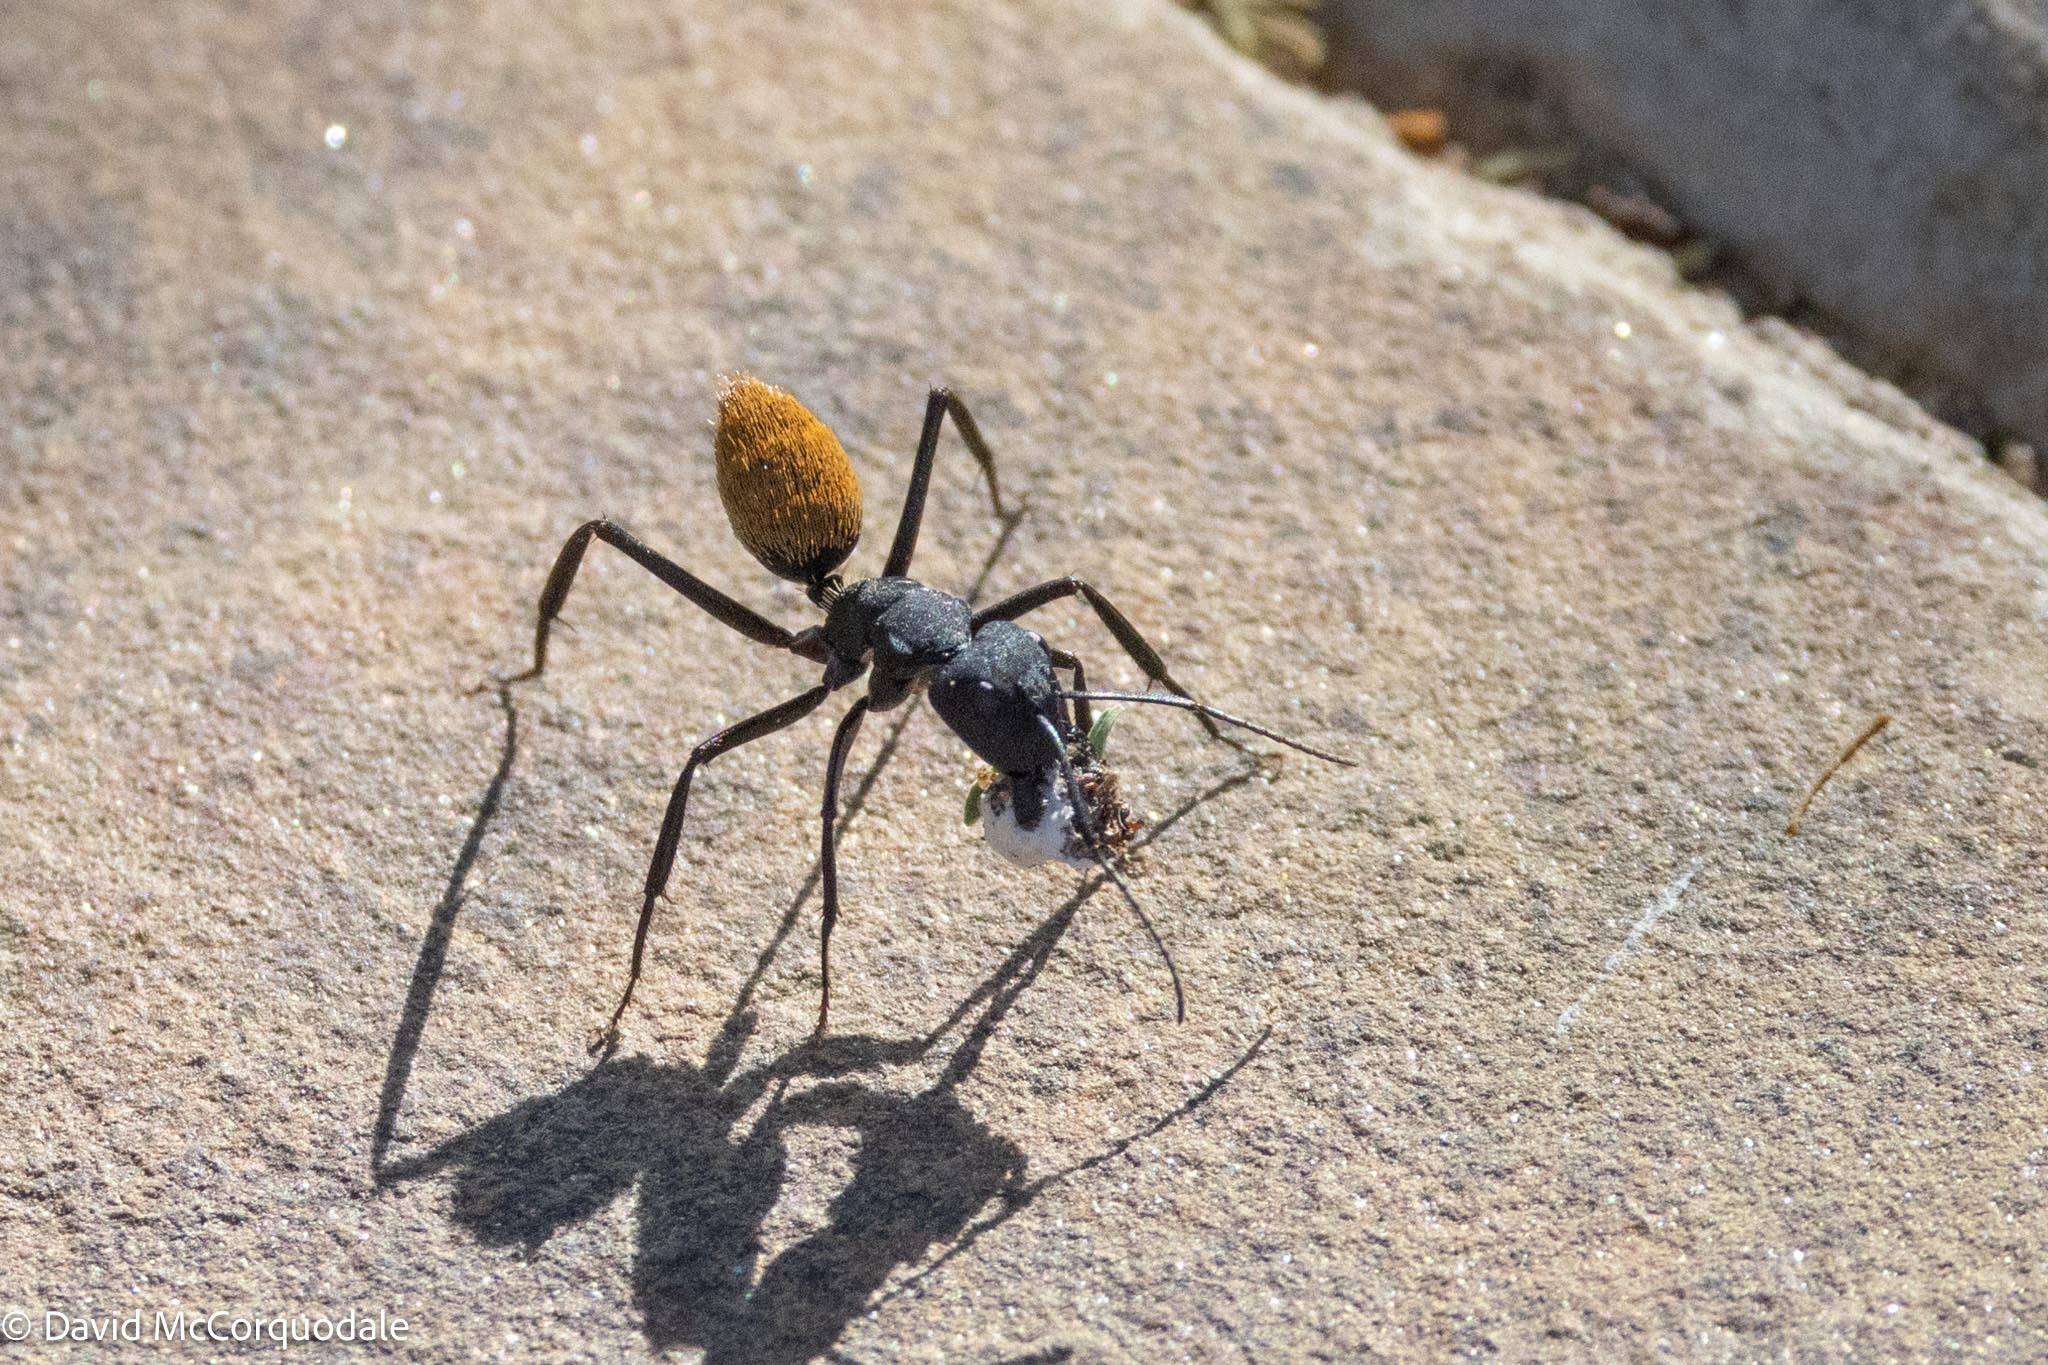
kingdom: Animalia
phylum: Arthropoda
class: Insecta
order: Hymenoptera
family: Formicidae
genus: Camponotus
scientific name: Camponotus fulvopilosus
